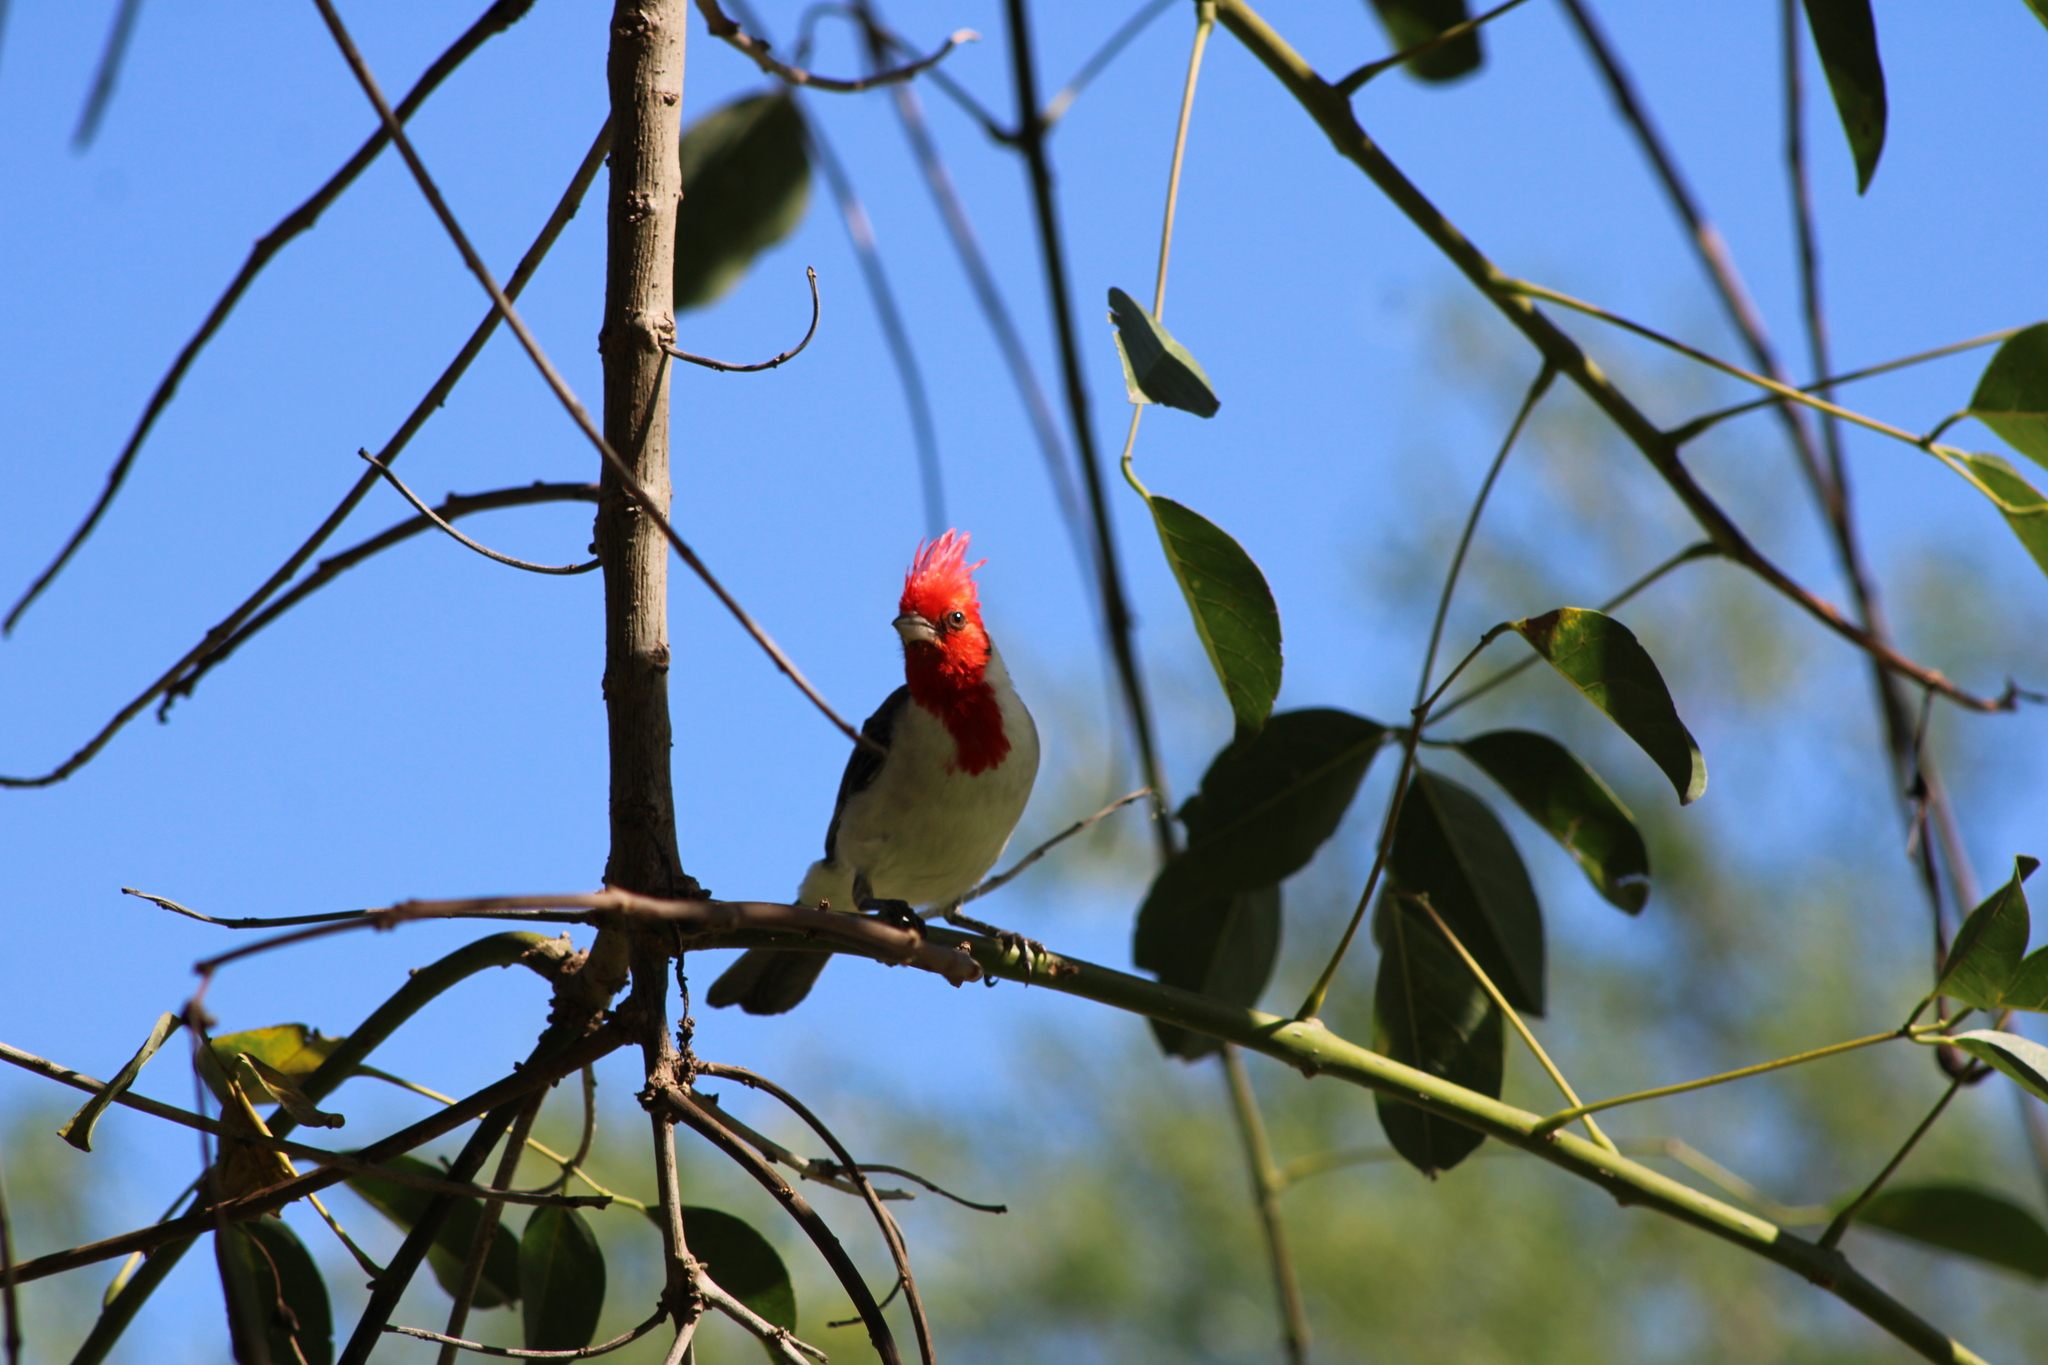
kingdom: Animalia
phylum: Chordata
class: Aves
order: Passeriformes
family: Thraupidae
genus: Paroaria
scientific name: Paroaria coronata
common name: Red-crested cardinal
